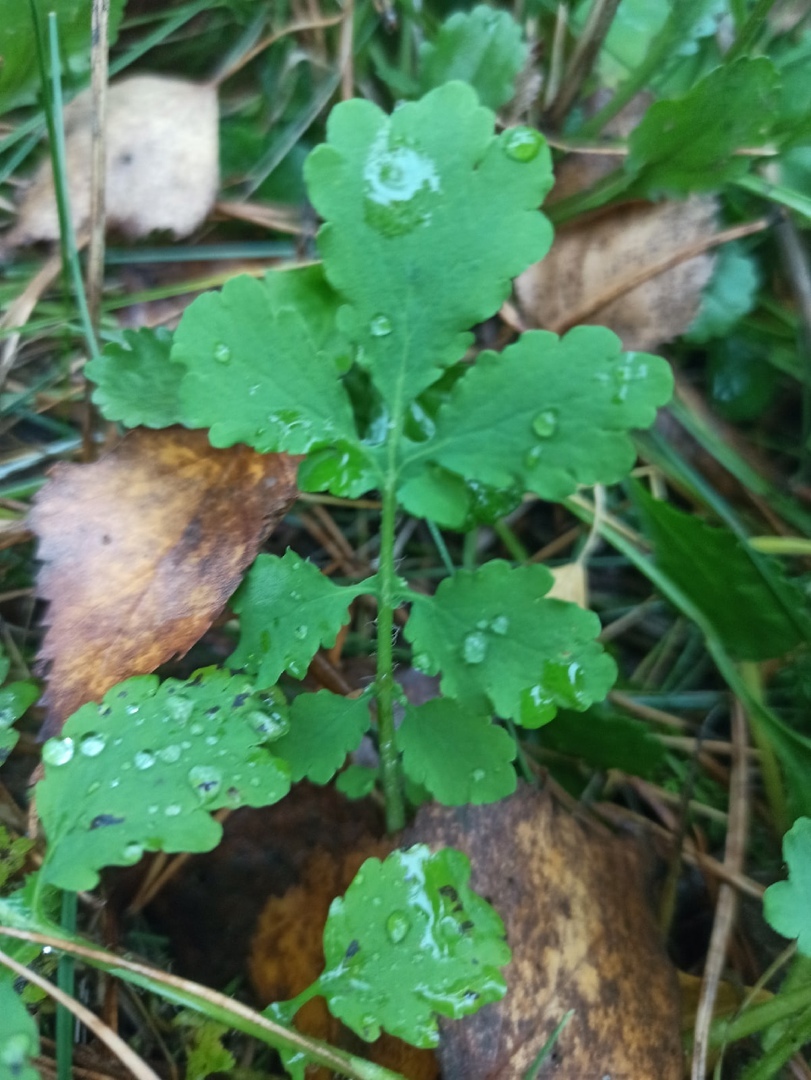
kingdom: Plantae
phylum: Tracheophyta
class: Magnoliopsida
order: Ranunculales
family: Papaveraceae
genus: Chelidonium
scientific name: Chelidonium majus
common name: Greater celandine
